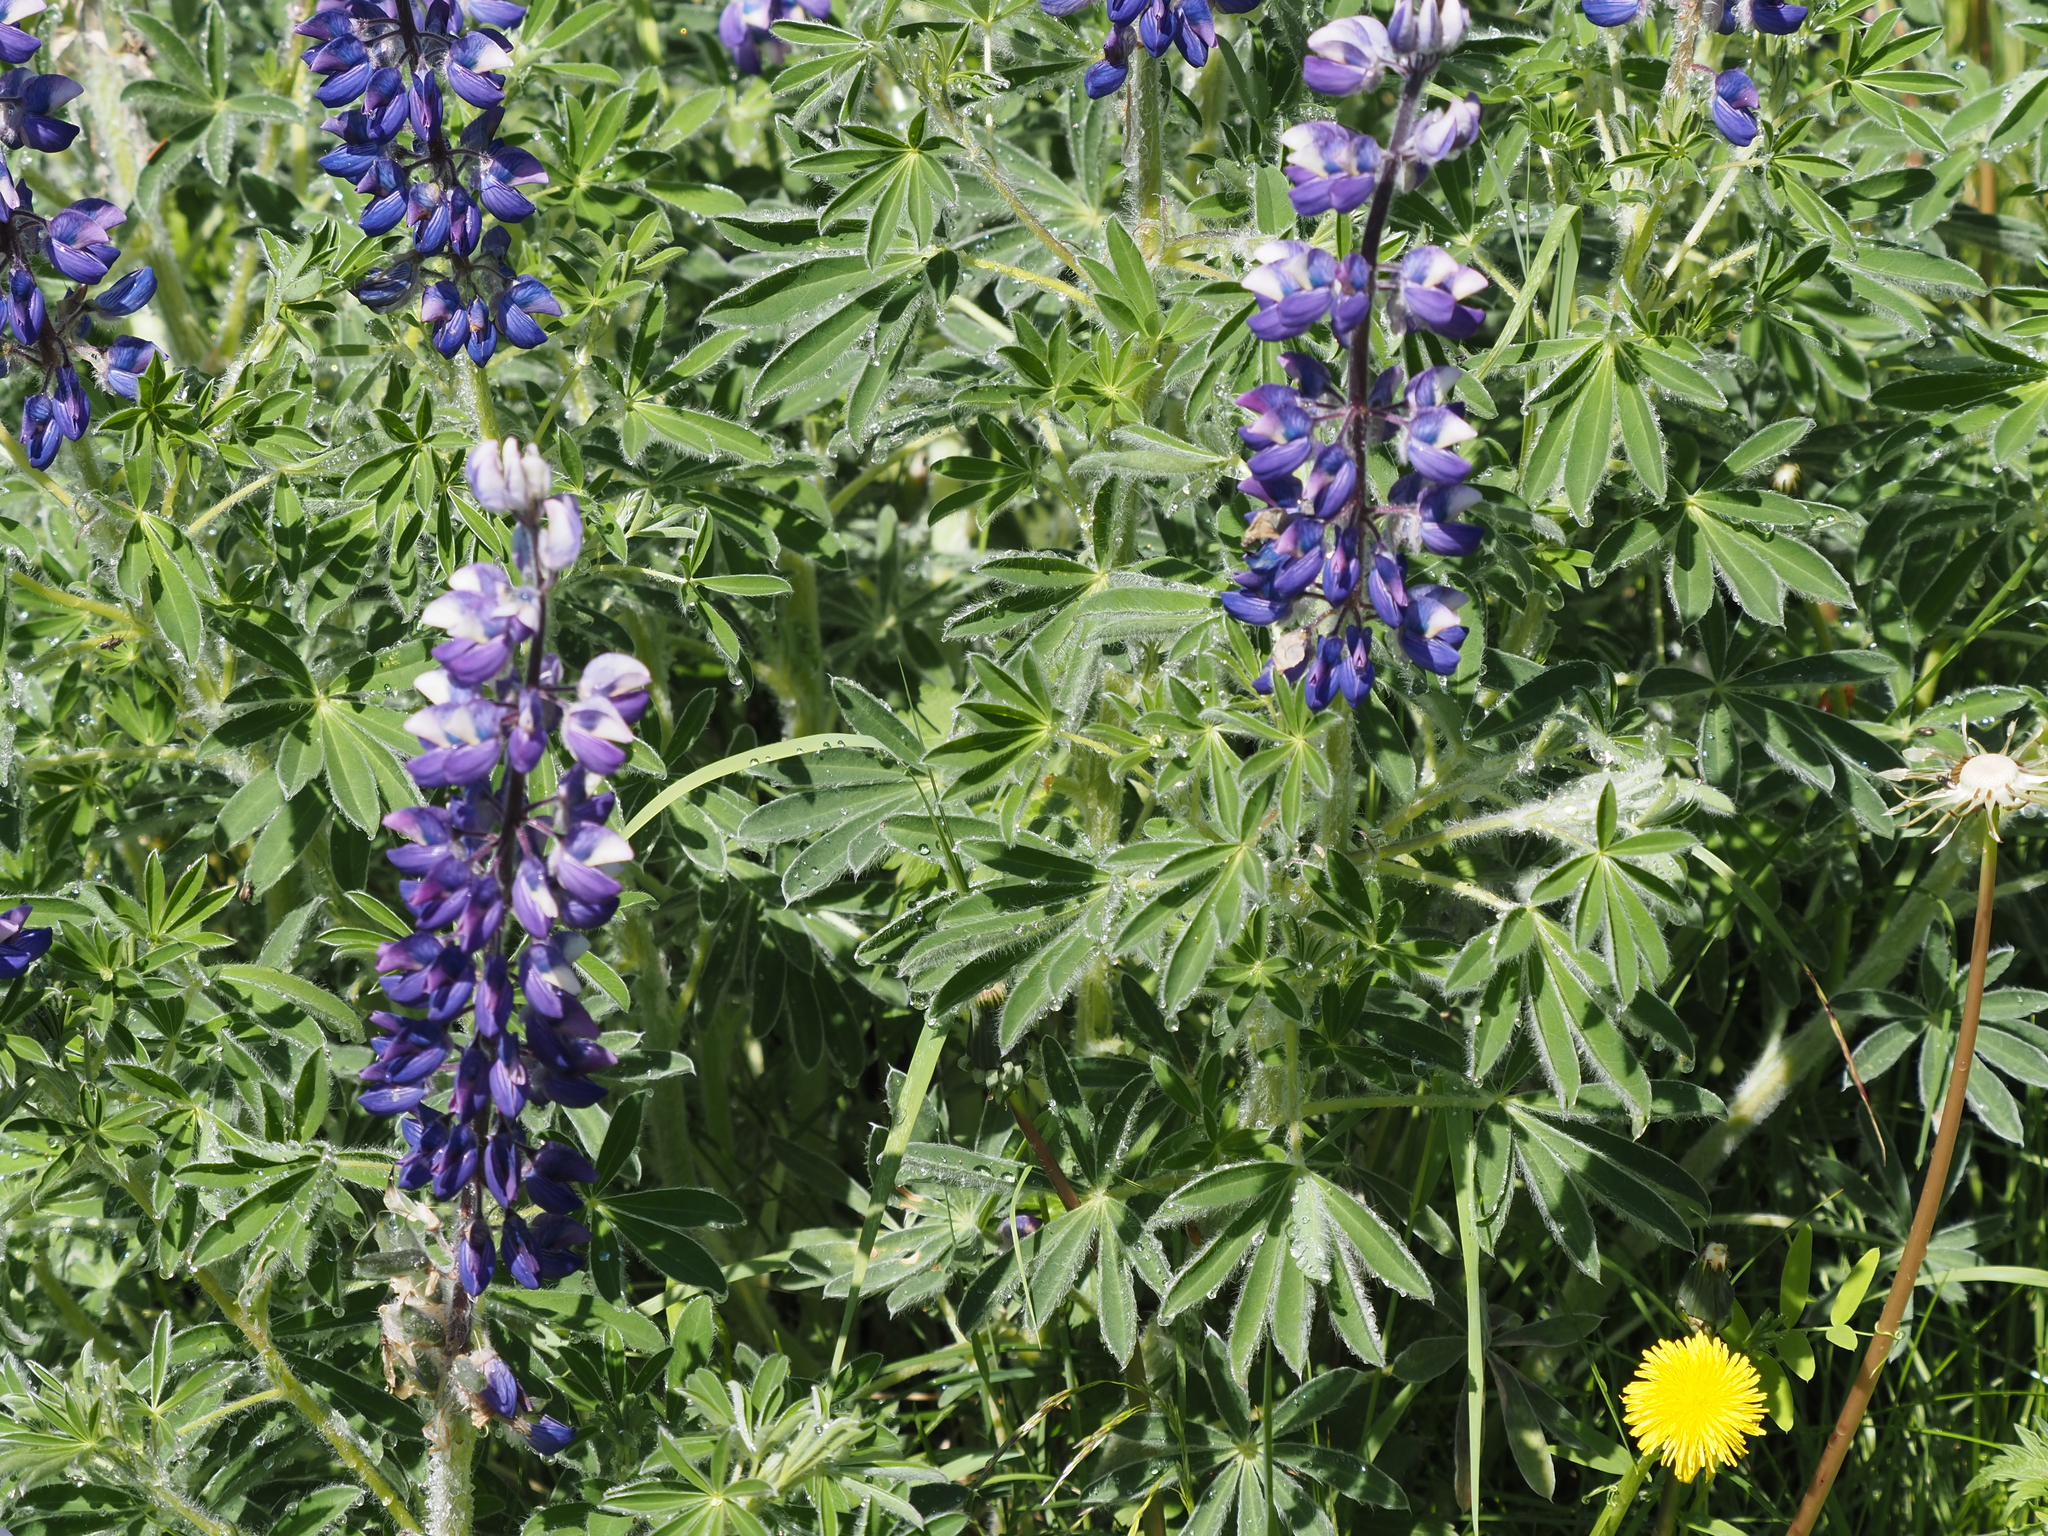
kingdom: Plantae
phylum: Tracheophyta
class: Magnoliopsida
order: Fabales
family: Fabaceae
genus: Lupinus
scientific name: Lupinus nootkatensis
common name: Nootka lupine
